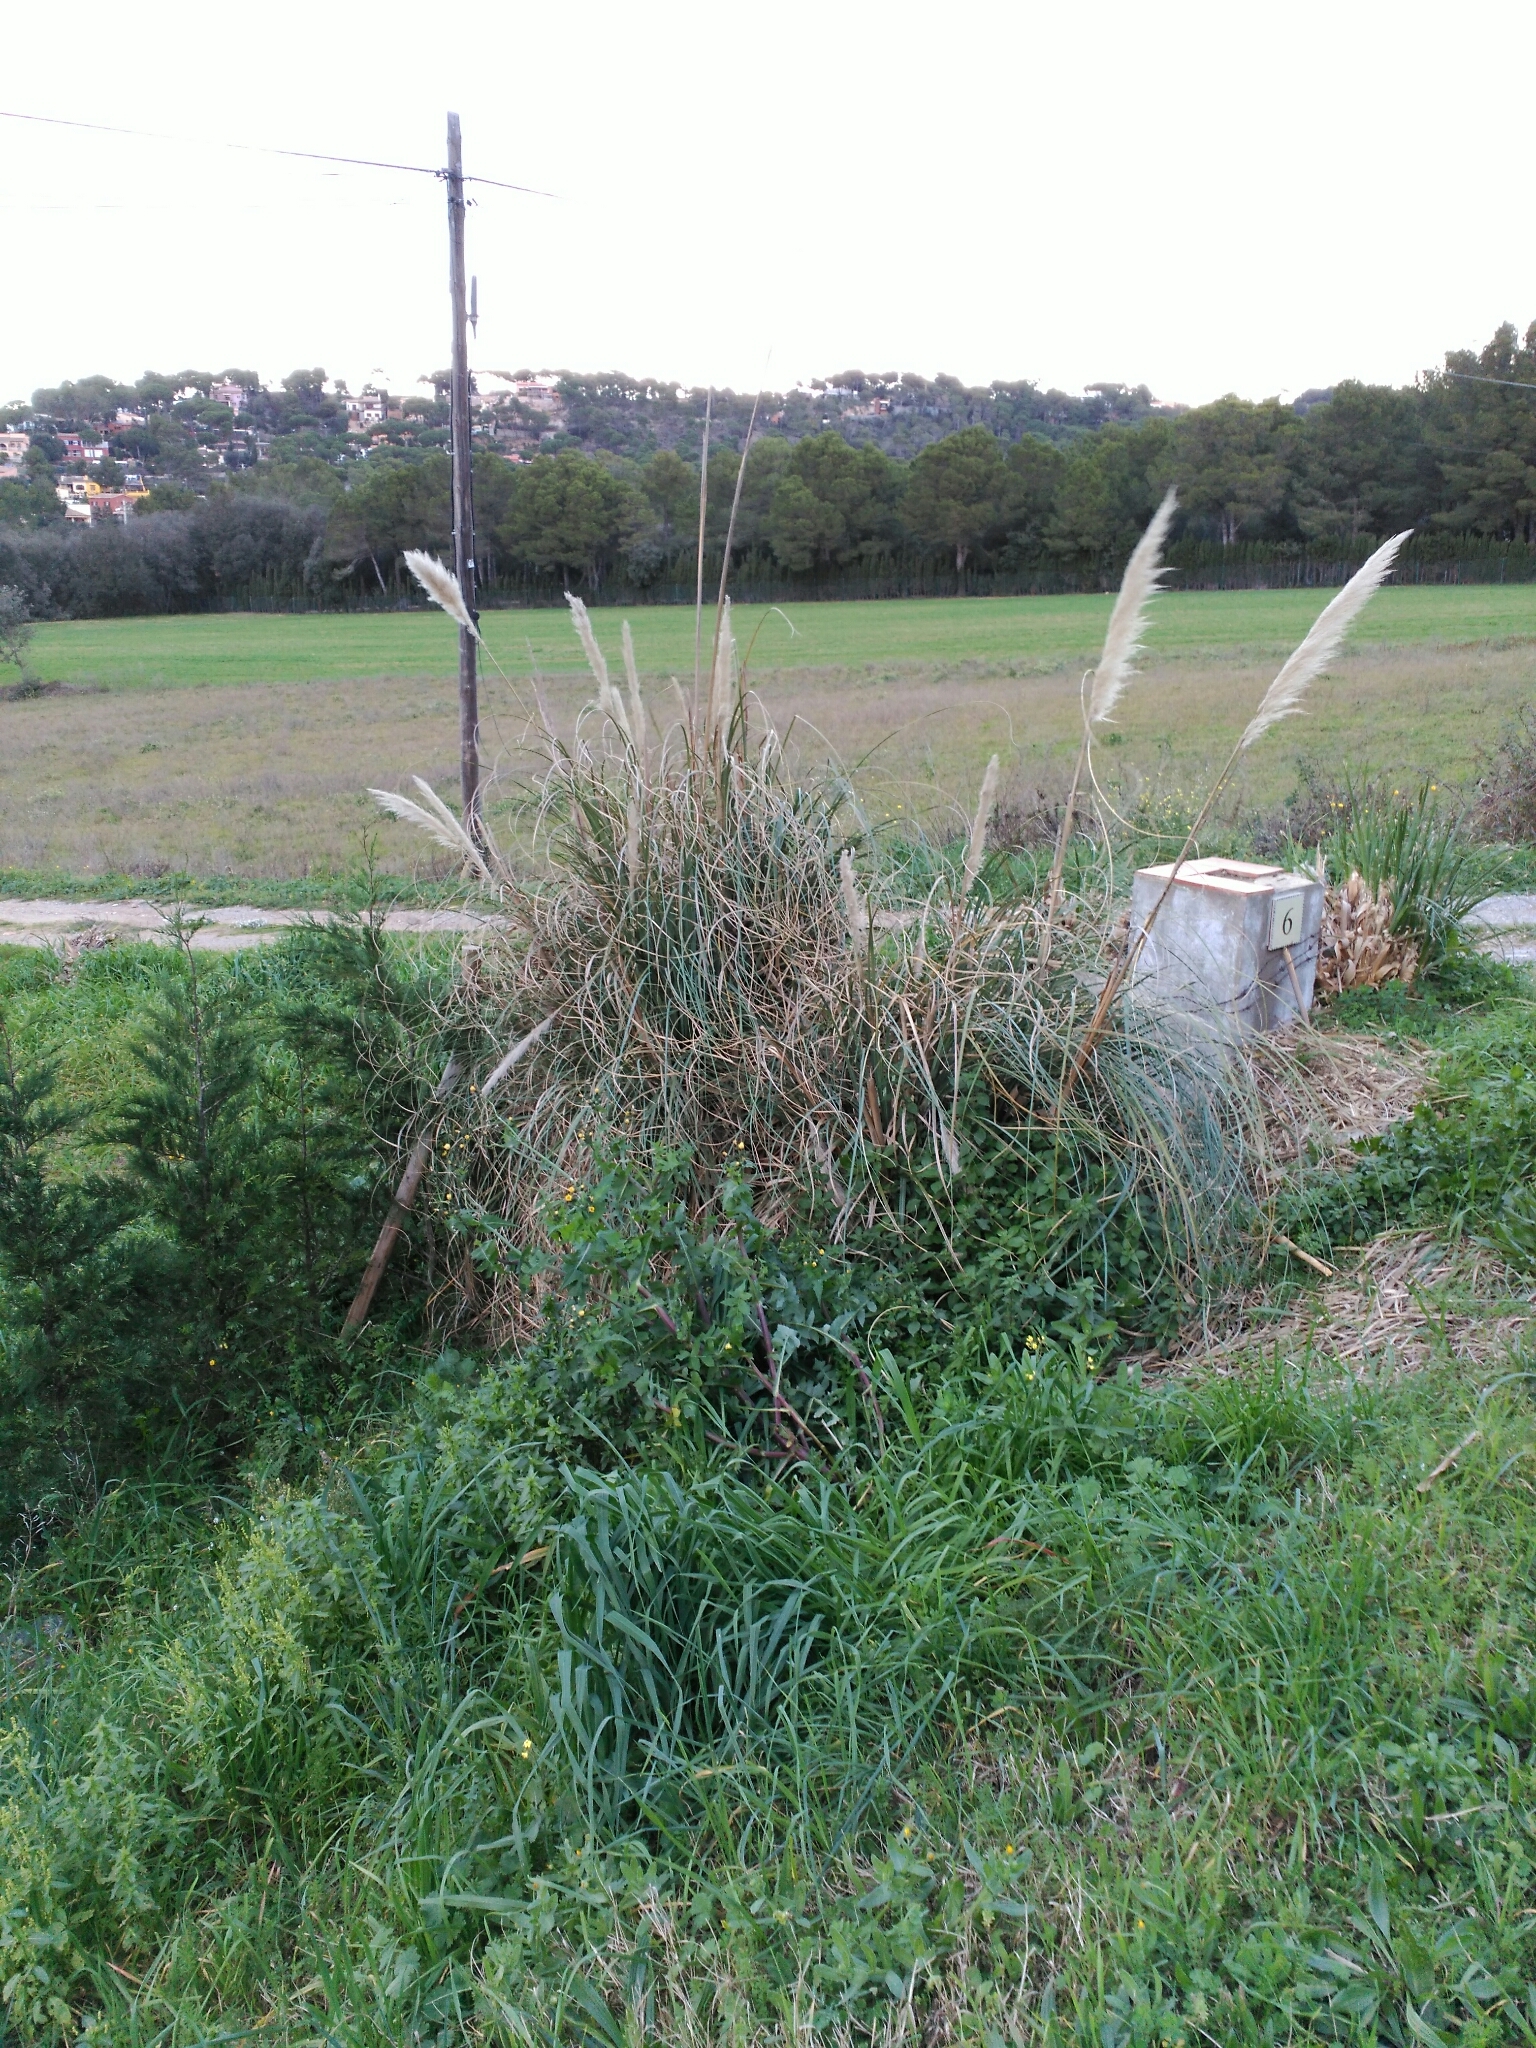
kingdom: Plantae
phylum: Tracheophyta
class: Liliopsida
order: Poales
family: Poaceae
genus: Cortaderia
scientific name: Cortaderia selloana
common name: Uruguayan pampas grass
